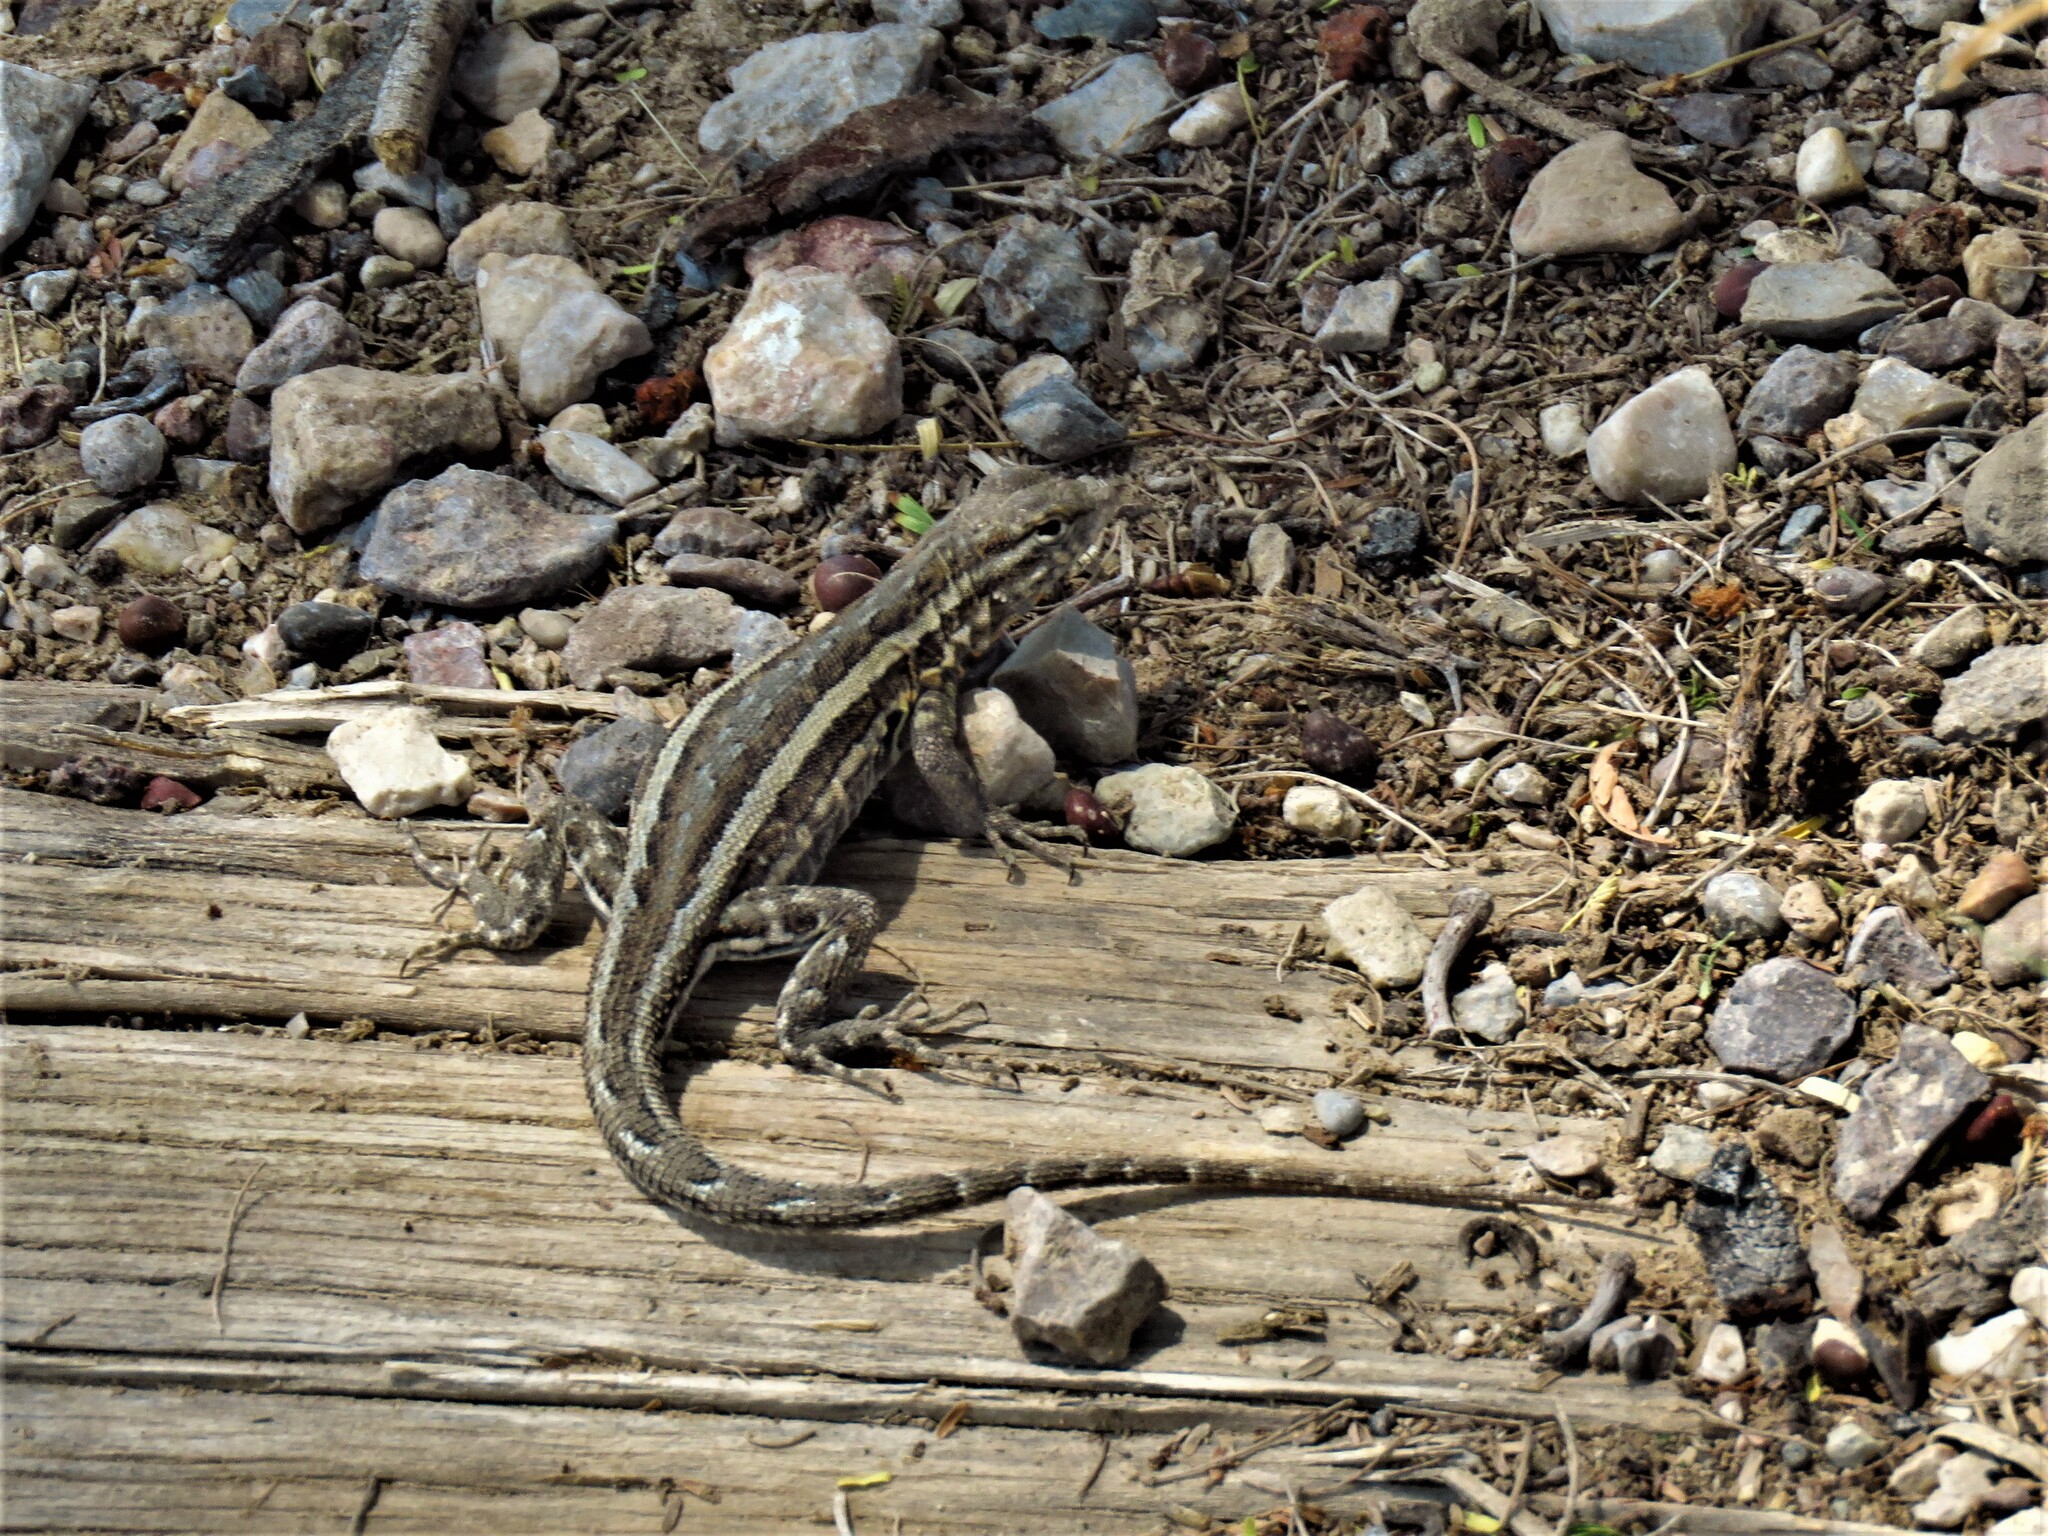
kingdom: Animalia
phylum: Chordata
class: Squamata
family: Phrynosomatidae
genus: Uta
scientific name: Uta stansburiana
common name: Side-blotched lizard
